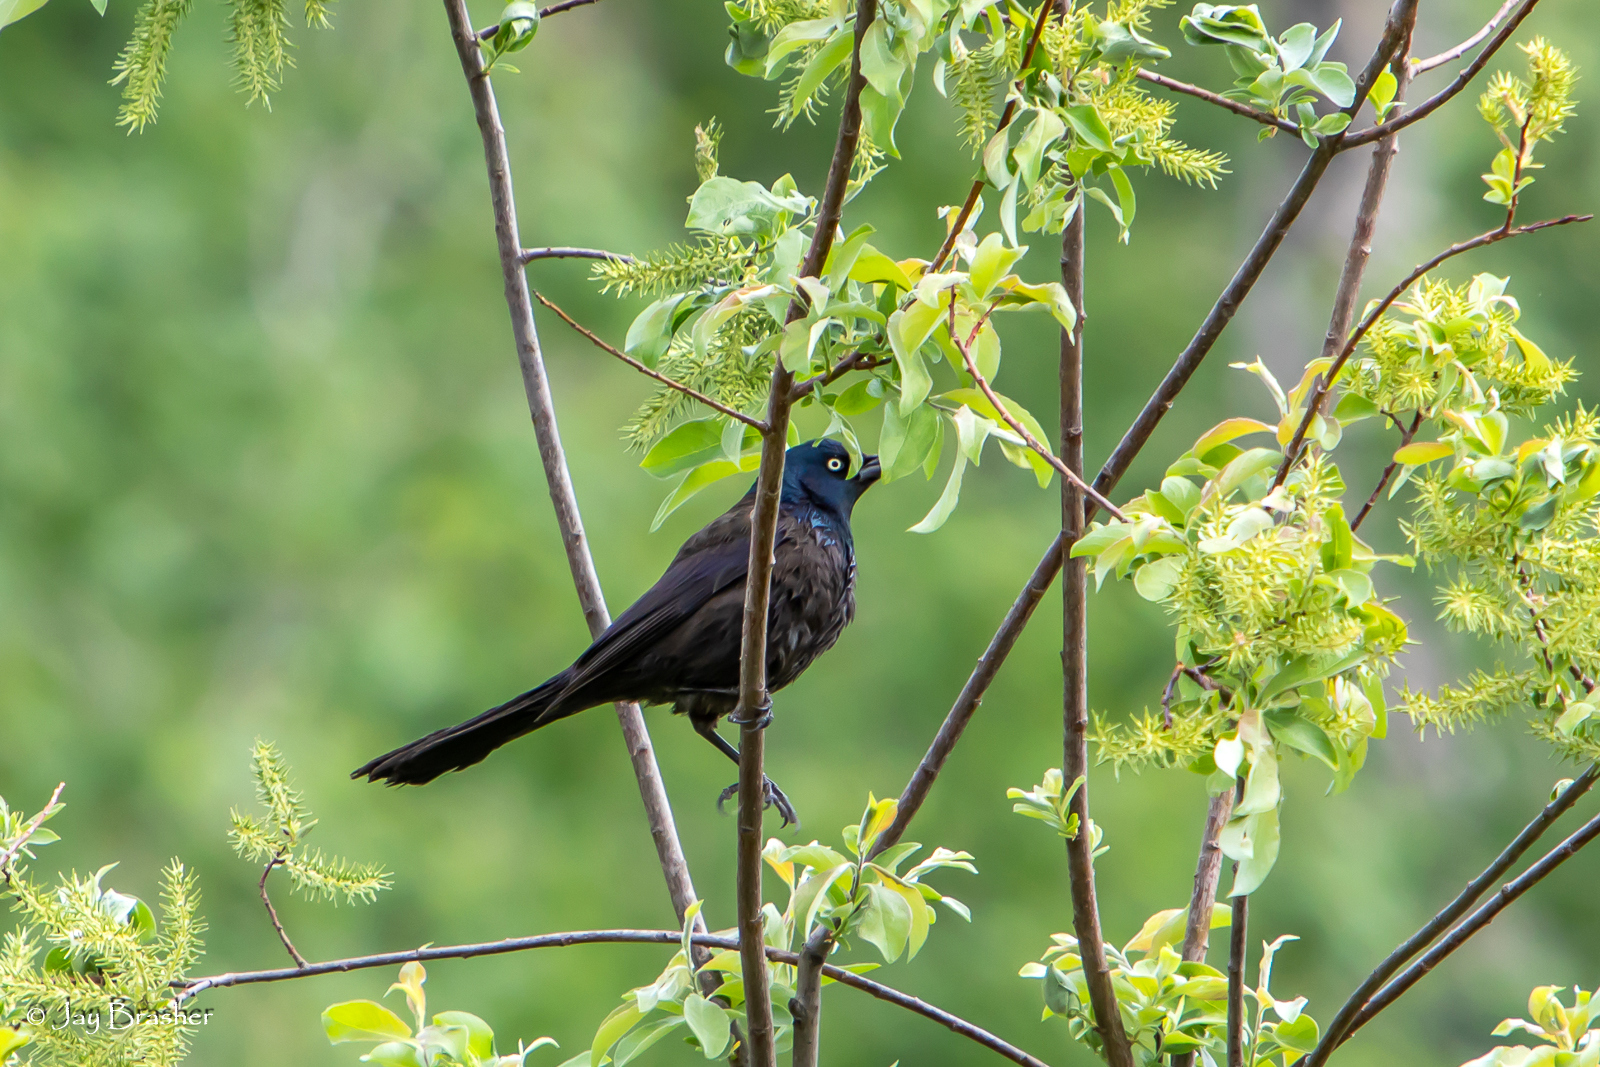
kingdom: Animalia
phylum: Chordata
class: Aves
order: Passeriformes
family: Icteridae
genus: Quiscalus
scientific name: Quiscalus quiscula
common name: Common grackle
